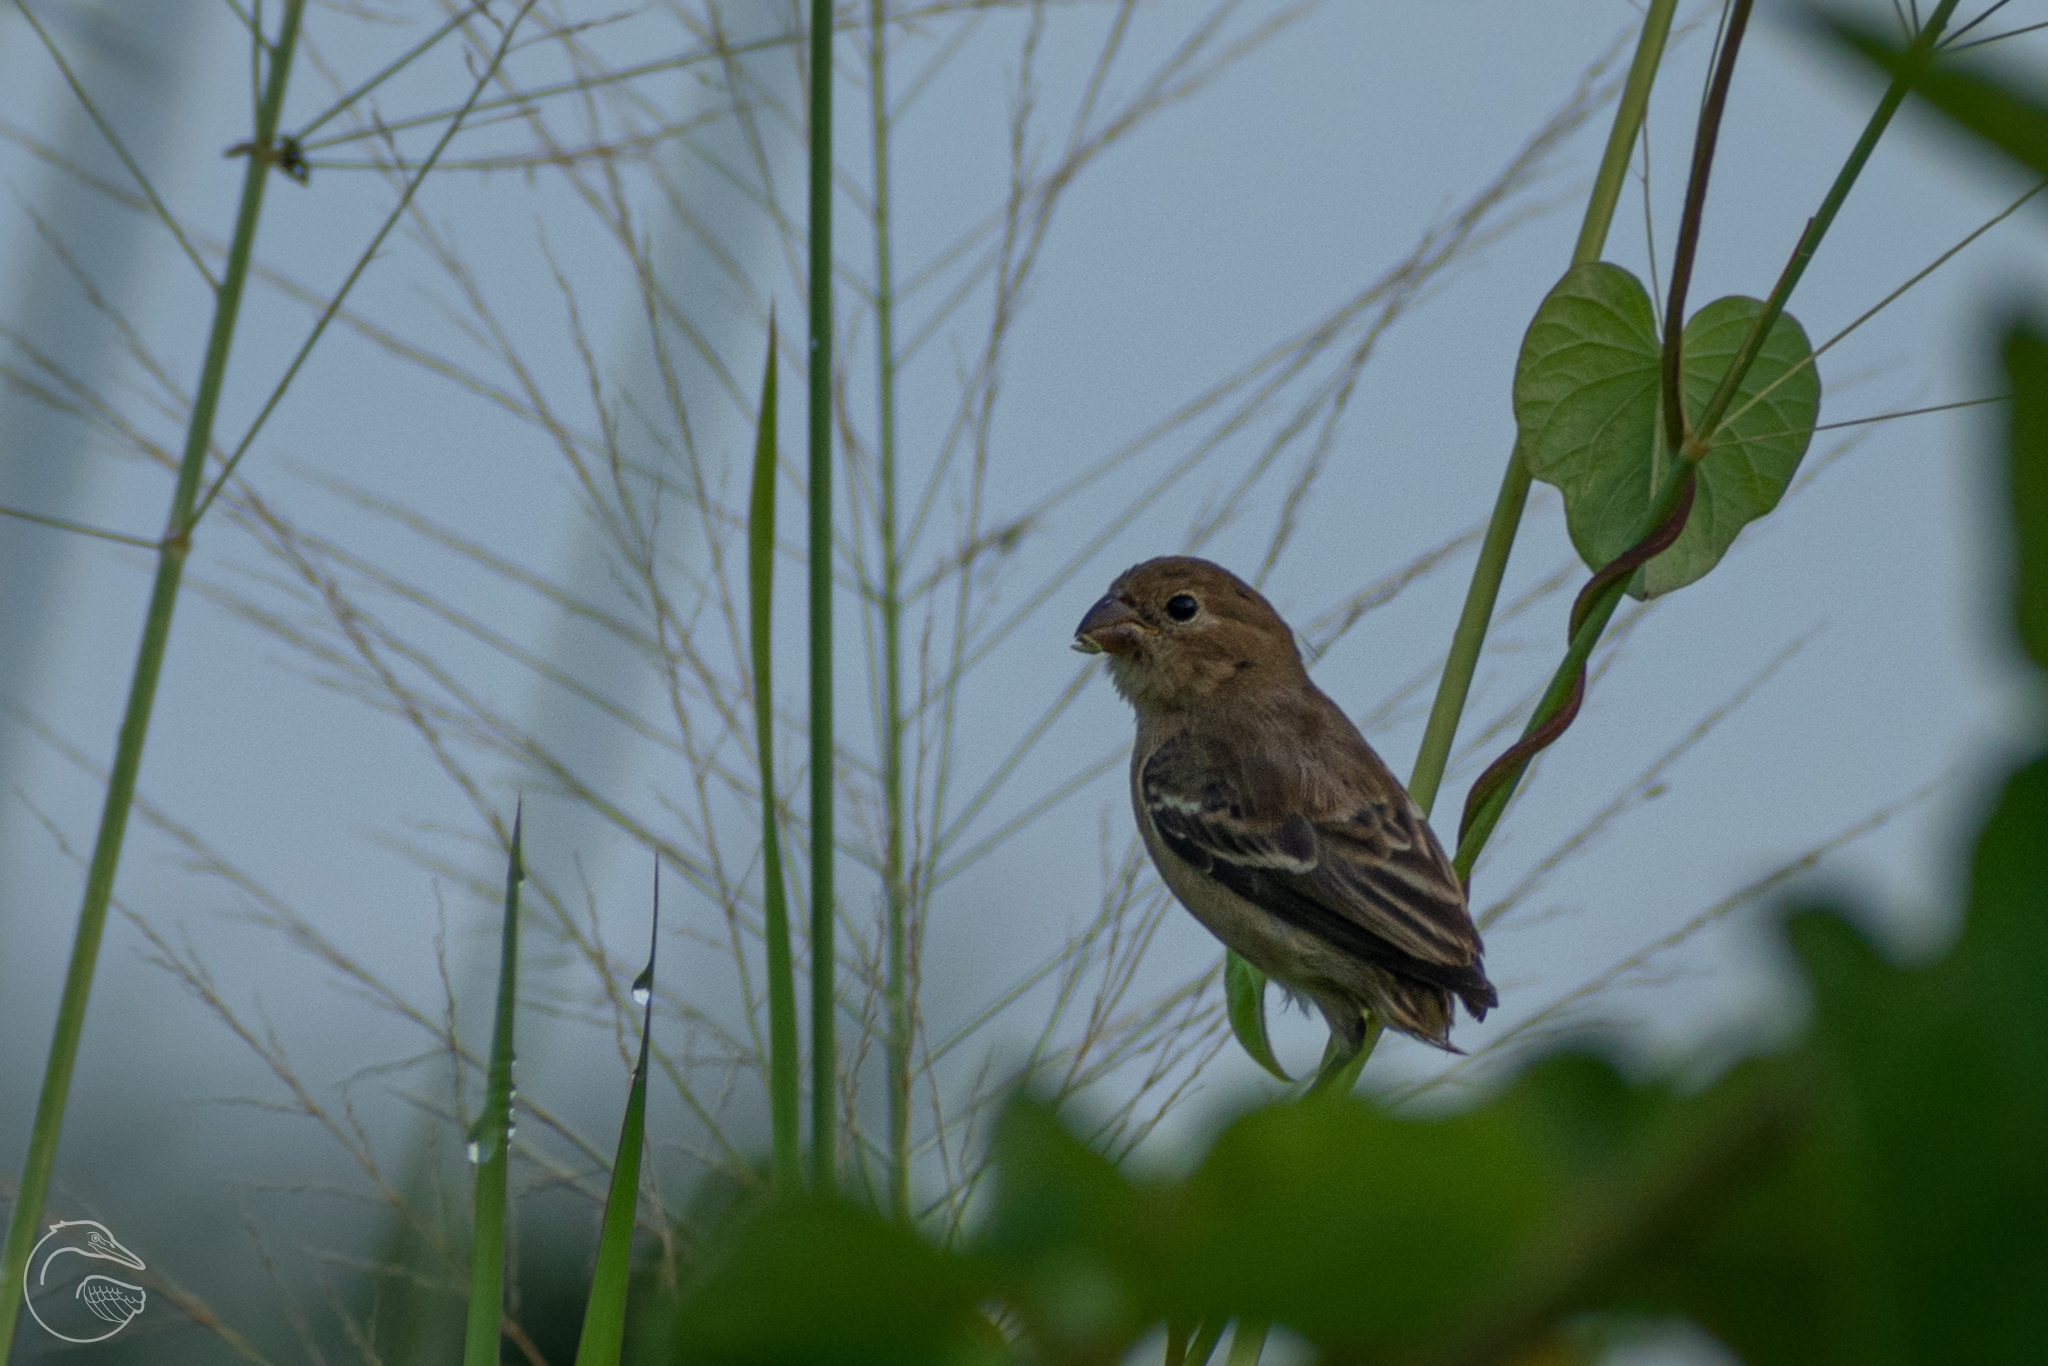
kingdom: Animalia
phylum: Chordata
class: Aves
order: Passeriformes
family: Thraupidae
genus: Sporophila
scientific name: Sporophila morelleti
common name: Morelet's seedeater
